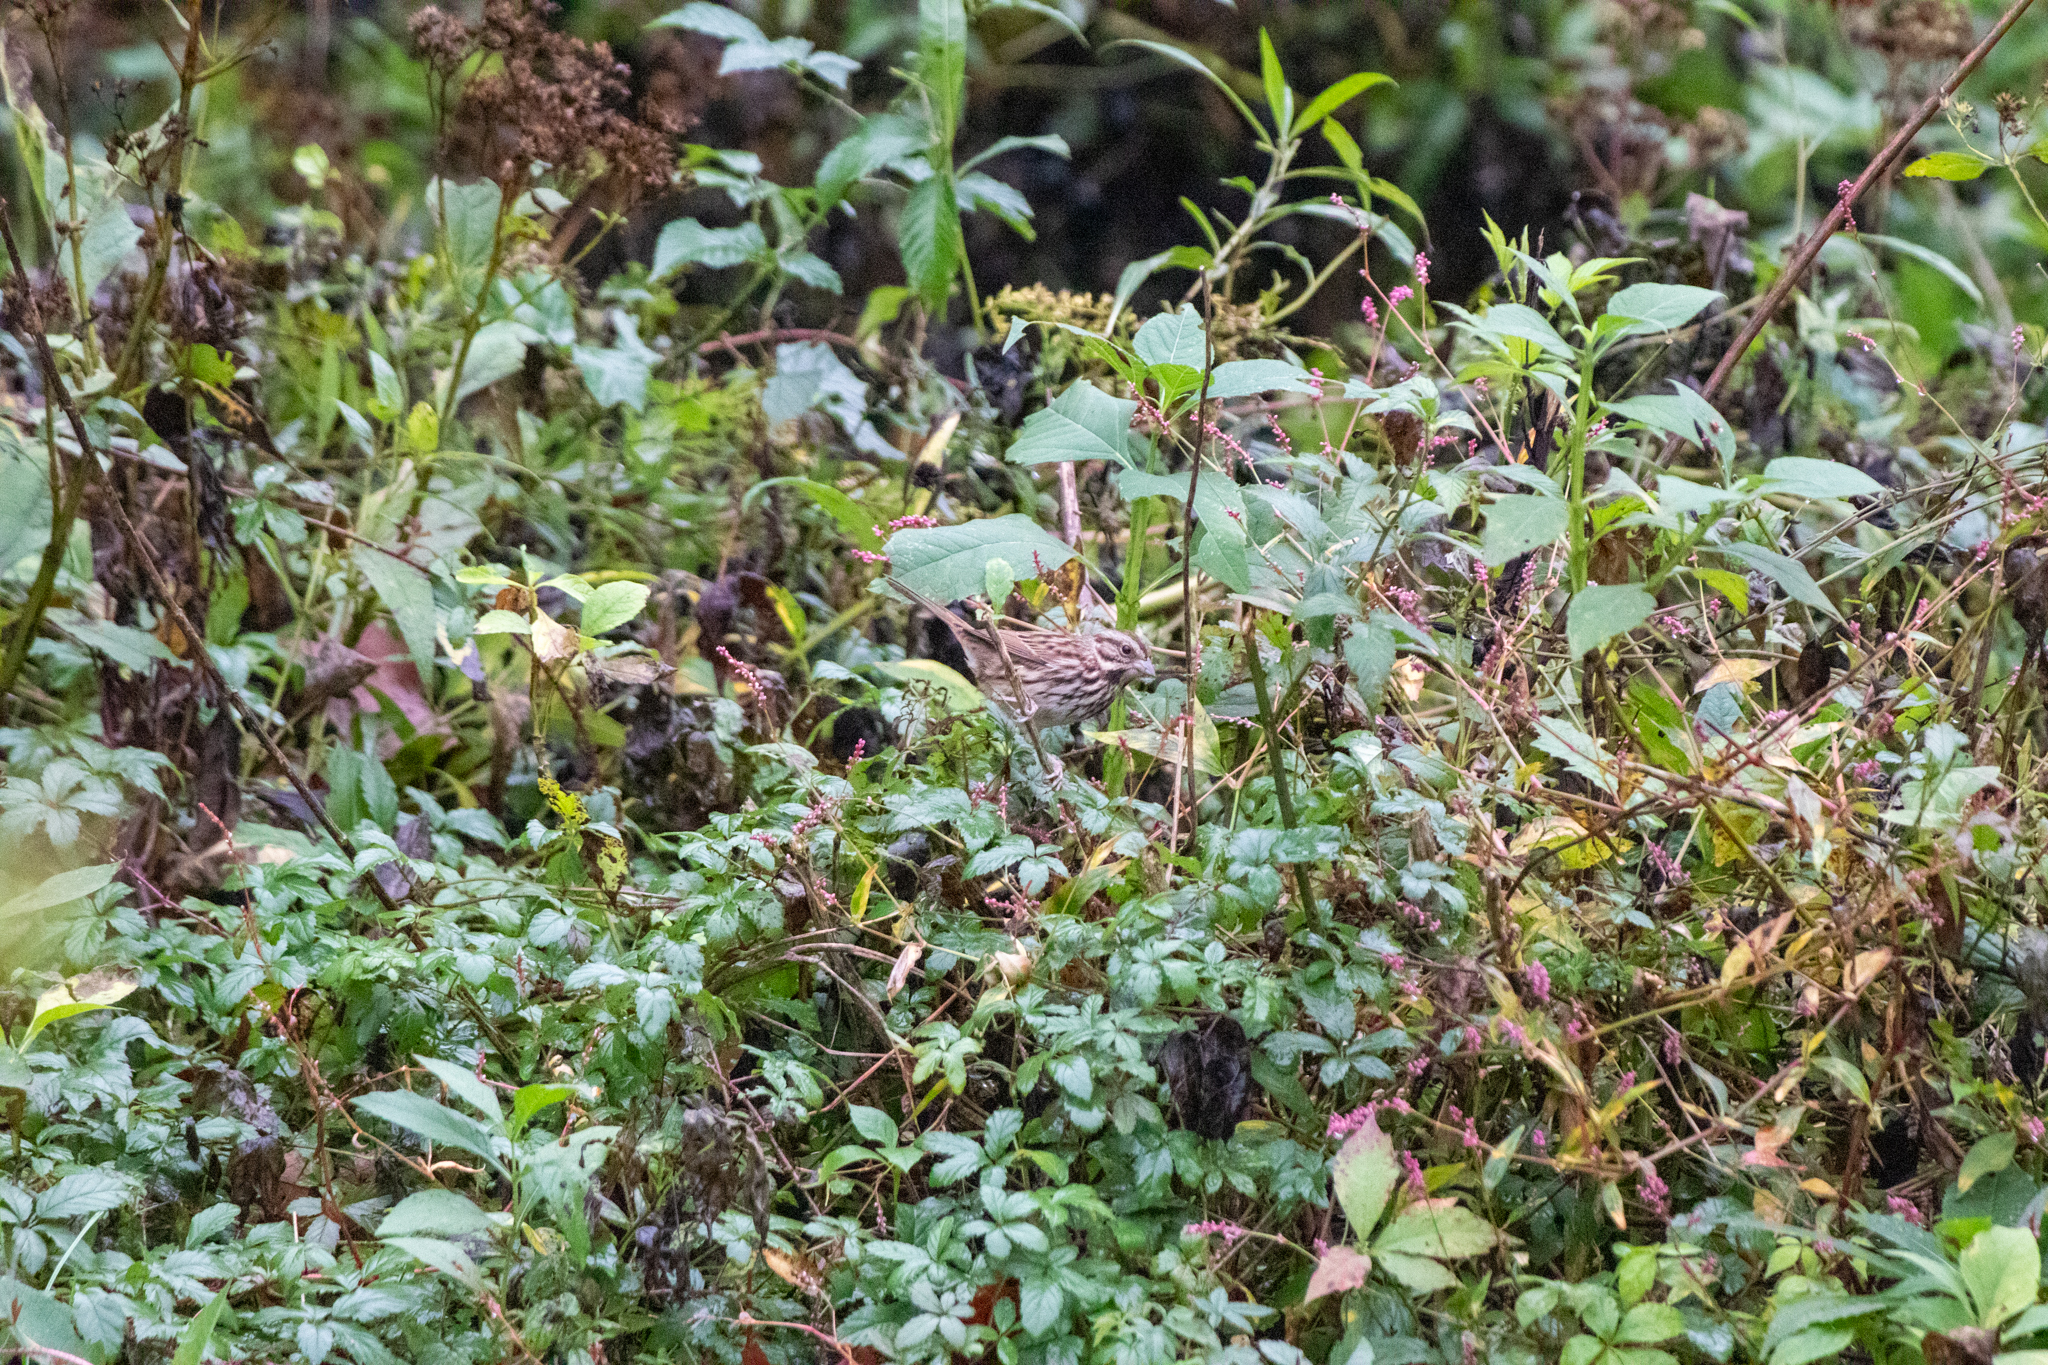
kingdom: Animalia
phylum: Chordata
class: Aves
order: Passeriformes
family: Passerellidae
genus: Melospiza
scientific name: Melospiza melodia
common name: Song sparrow
